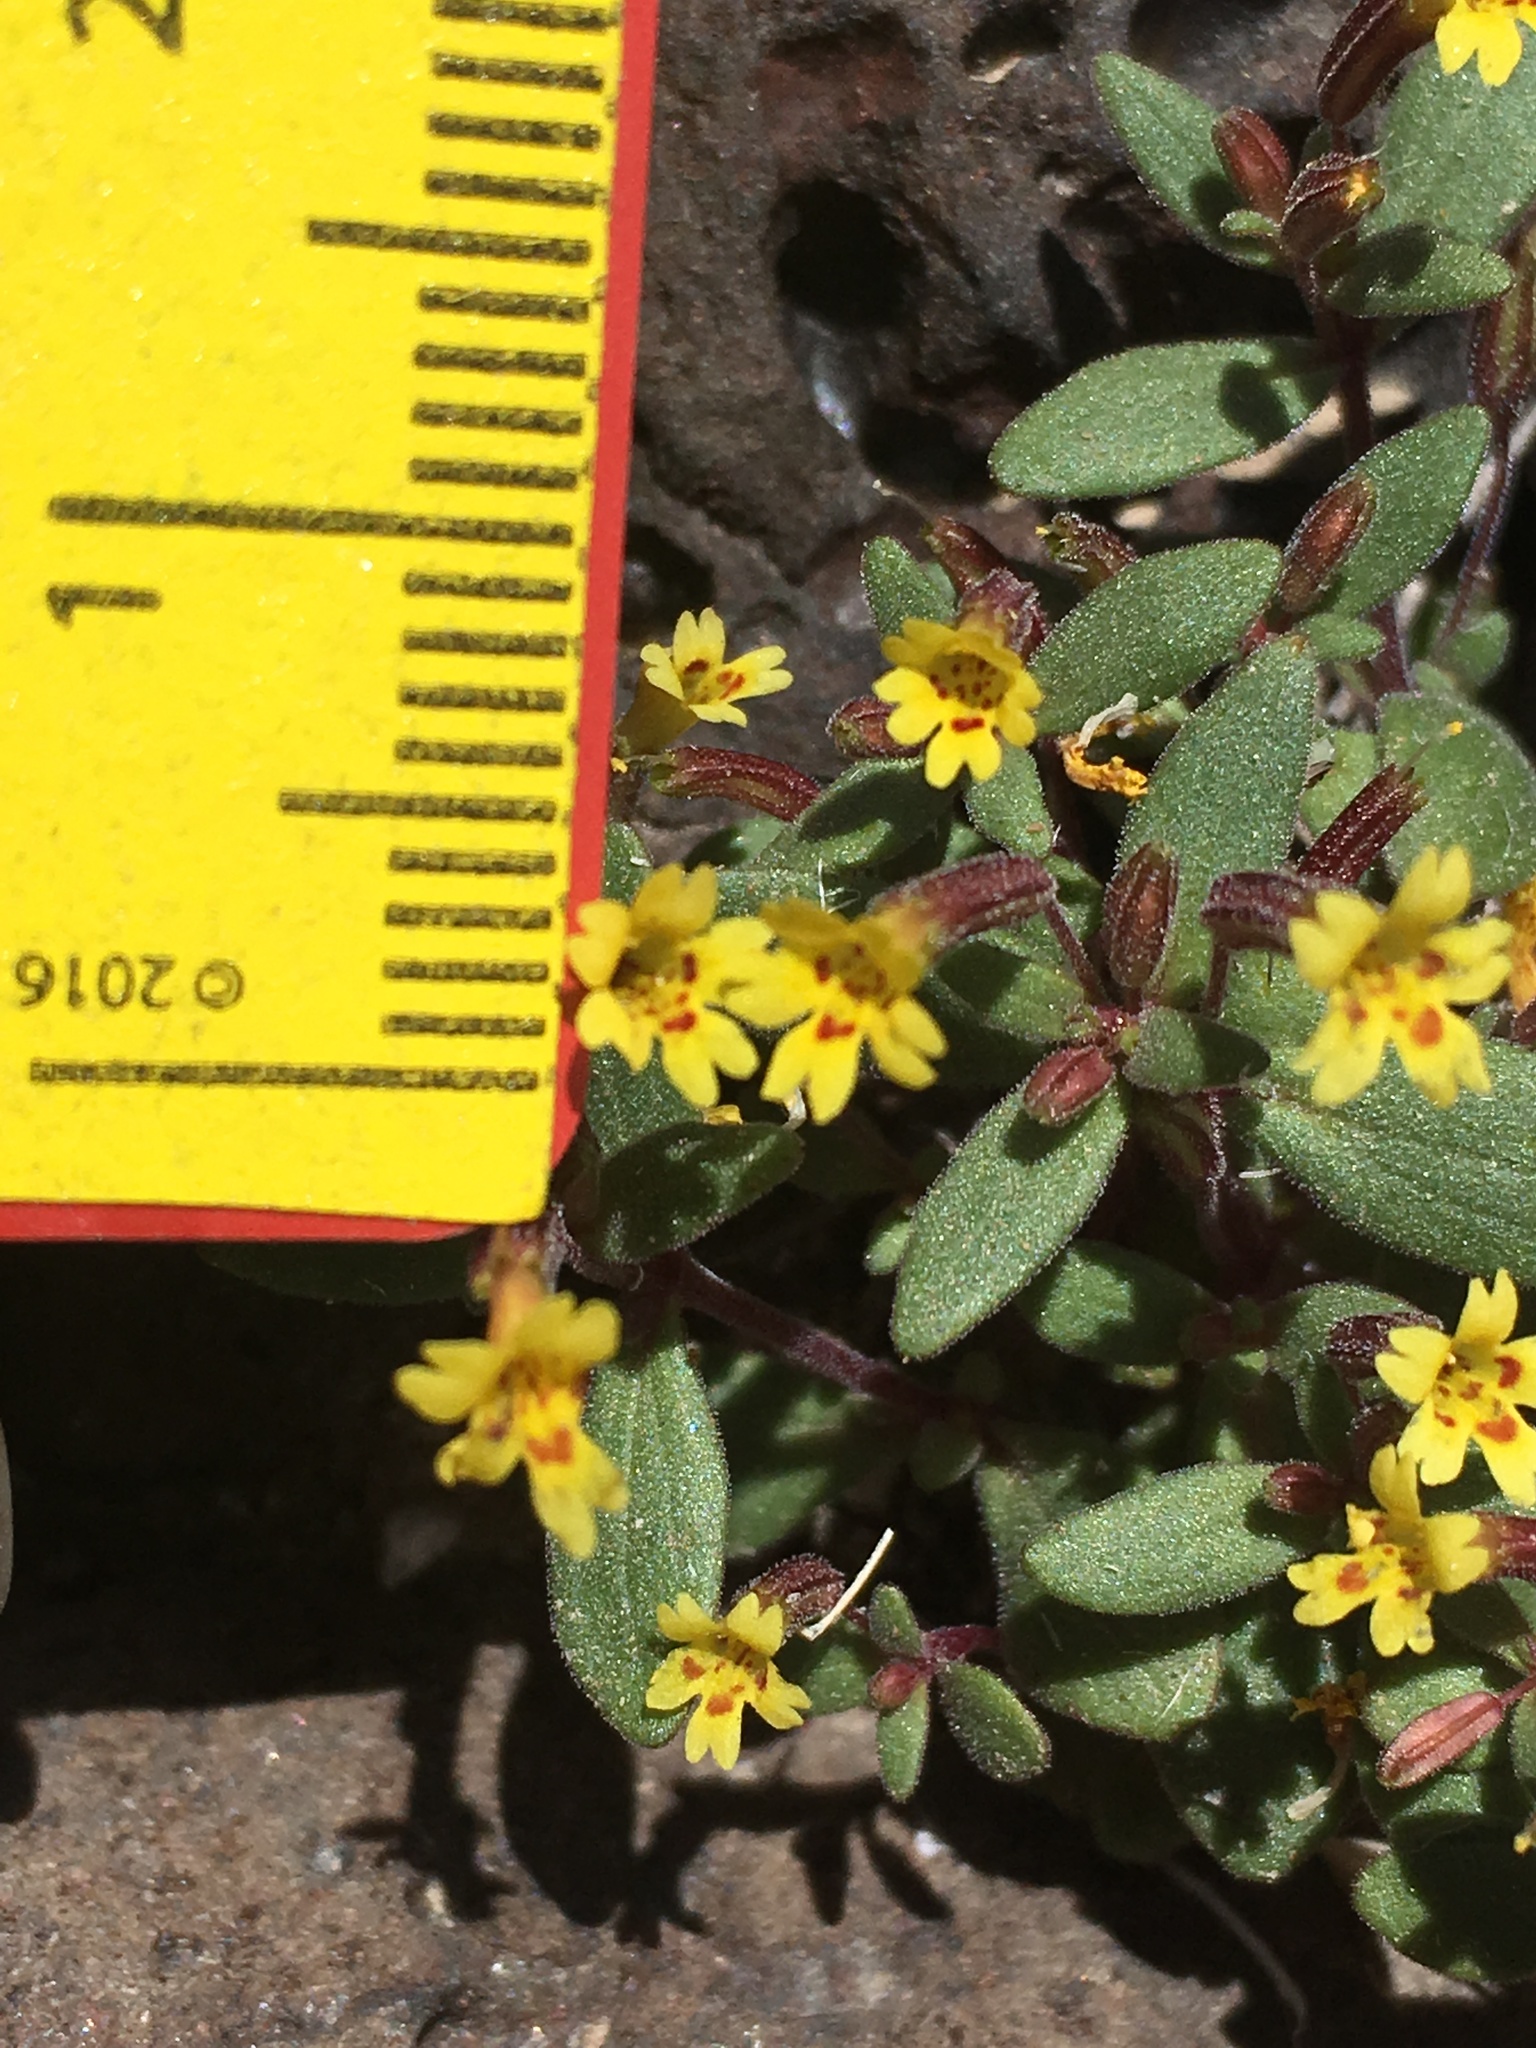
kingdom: Plantae
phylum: Tracheophyta
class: Magnoliopsida
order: Lamiales
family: Phrymaceae
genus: Erythranthe
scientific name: Erythranthe rubella
